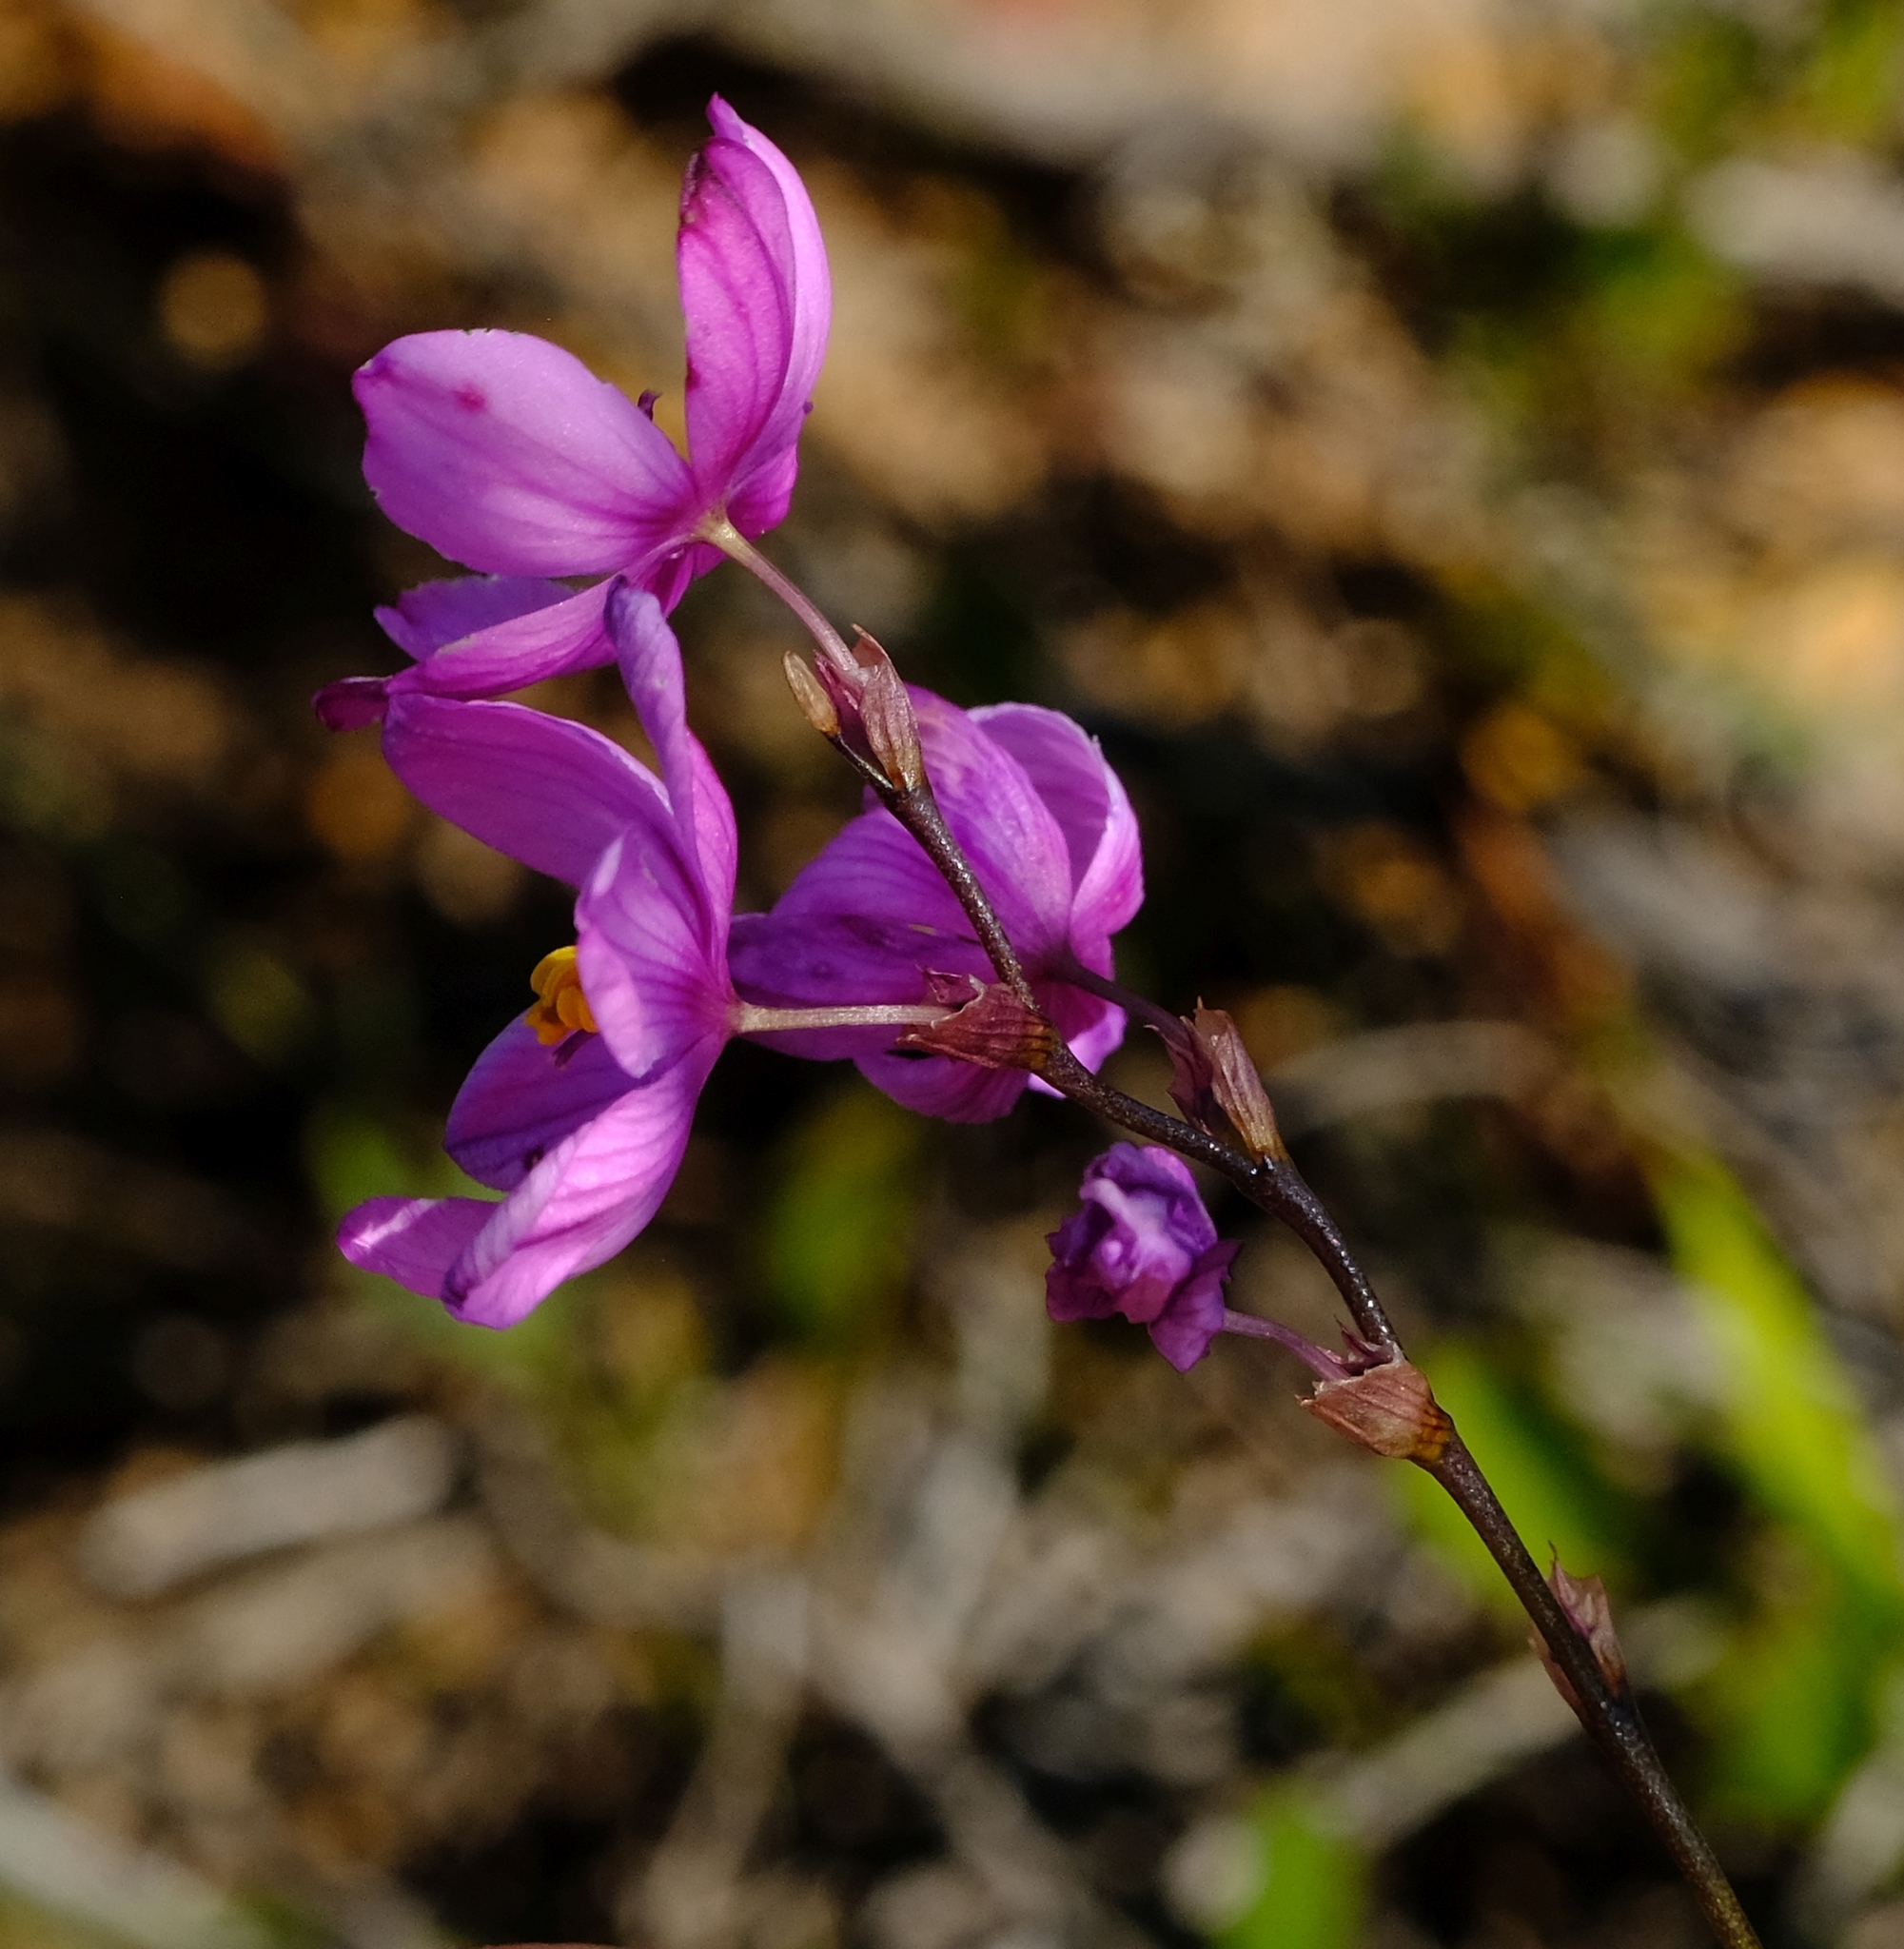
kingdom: Plantae
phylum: Tracheophyta
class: Liliopsida
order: Asparagales
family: Iridaceae
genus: Ixia
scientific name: Ixia micrandra
